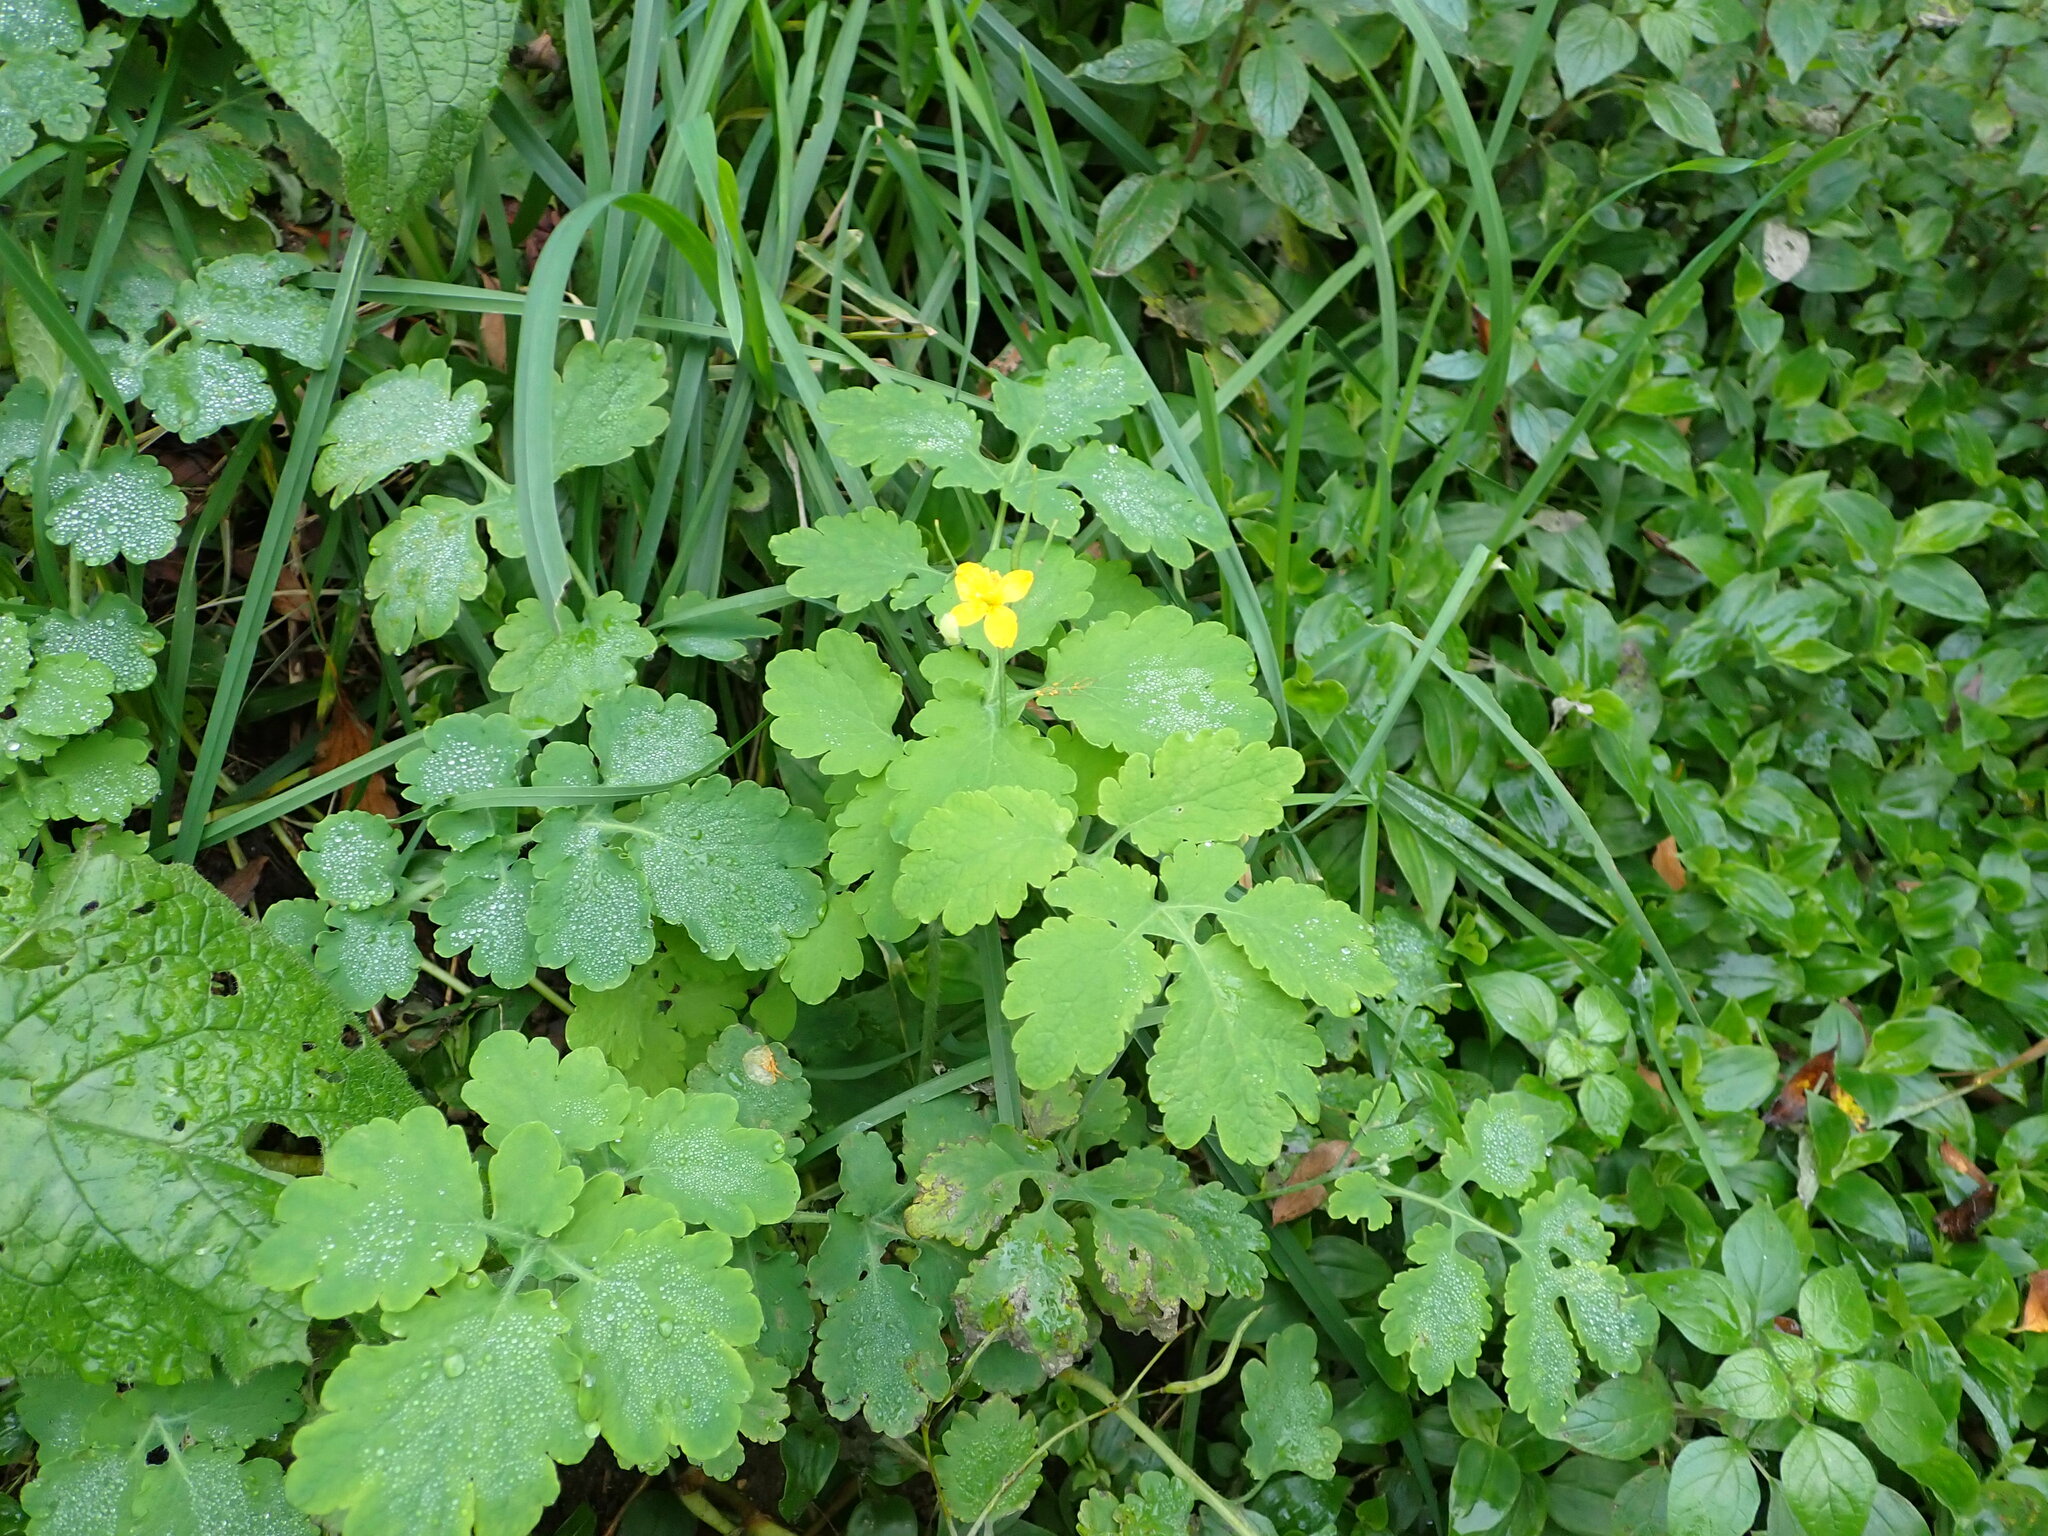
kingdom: Plantae
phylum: Tracheophyta
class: Magnoliopsida
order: Ranunculales
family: Papaveraceae
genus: Chelidonium
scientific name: Chelidonium majus
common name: Greater celandine
